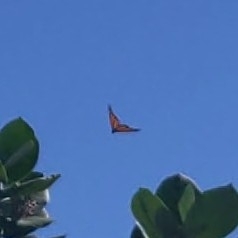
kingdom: Animalia
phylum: Arthropoda
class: Insecta
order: Lepidoptera
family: Nymphalidae
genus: Danaus
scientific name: Danaus plexippus
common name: Monarch
